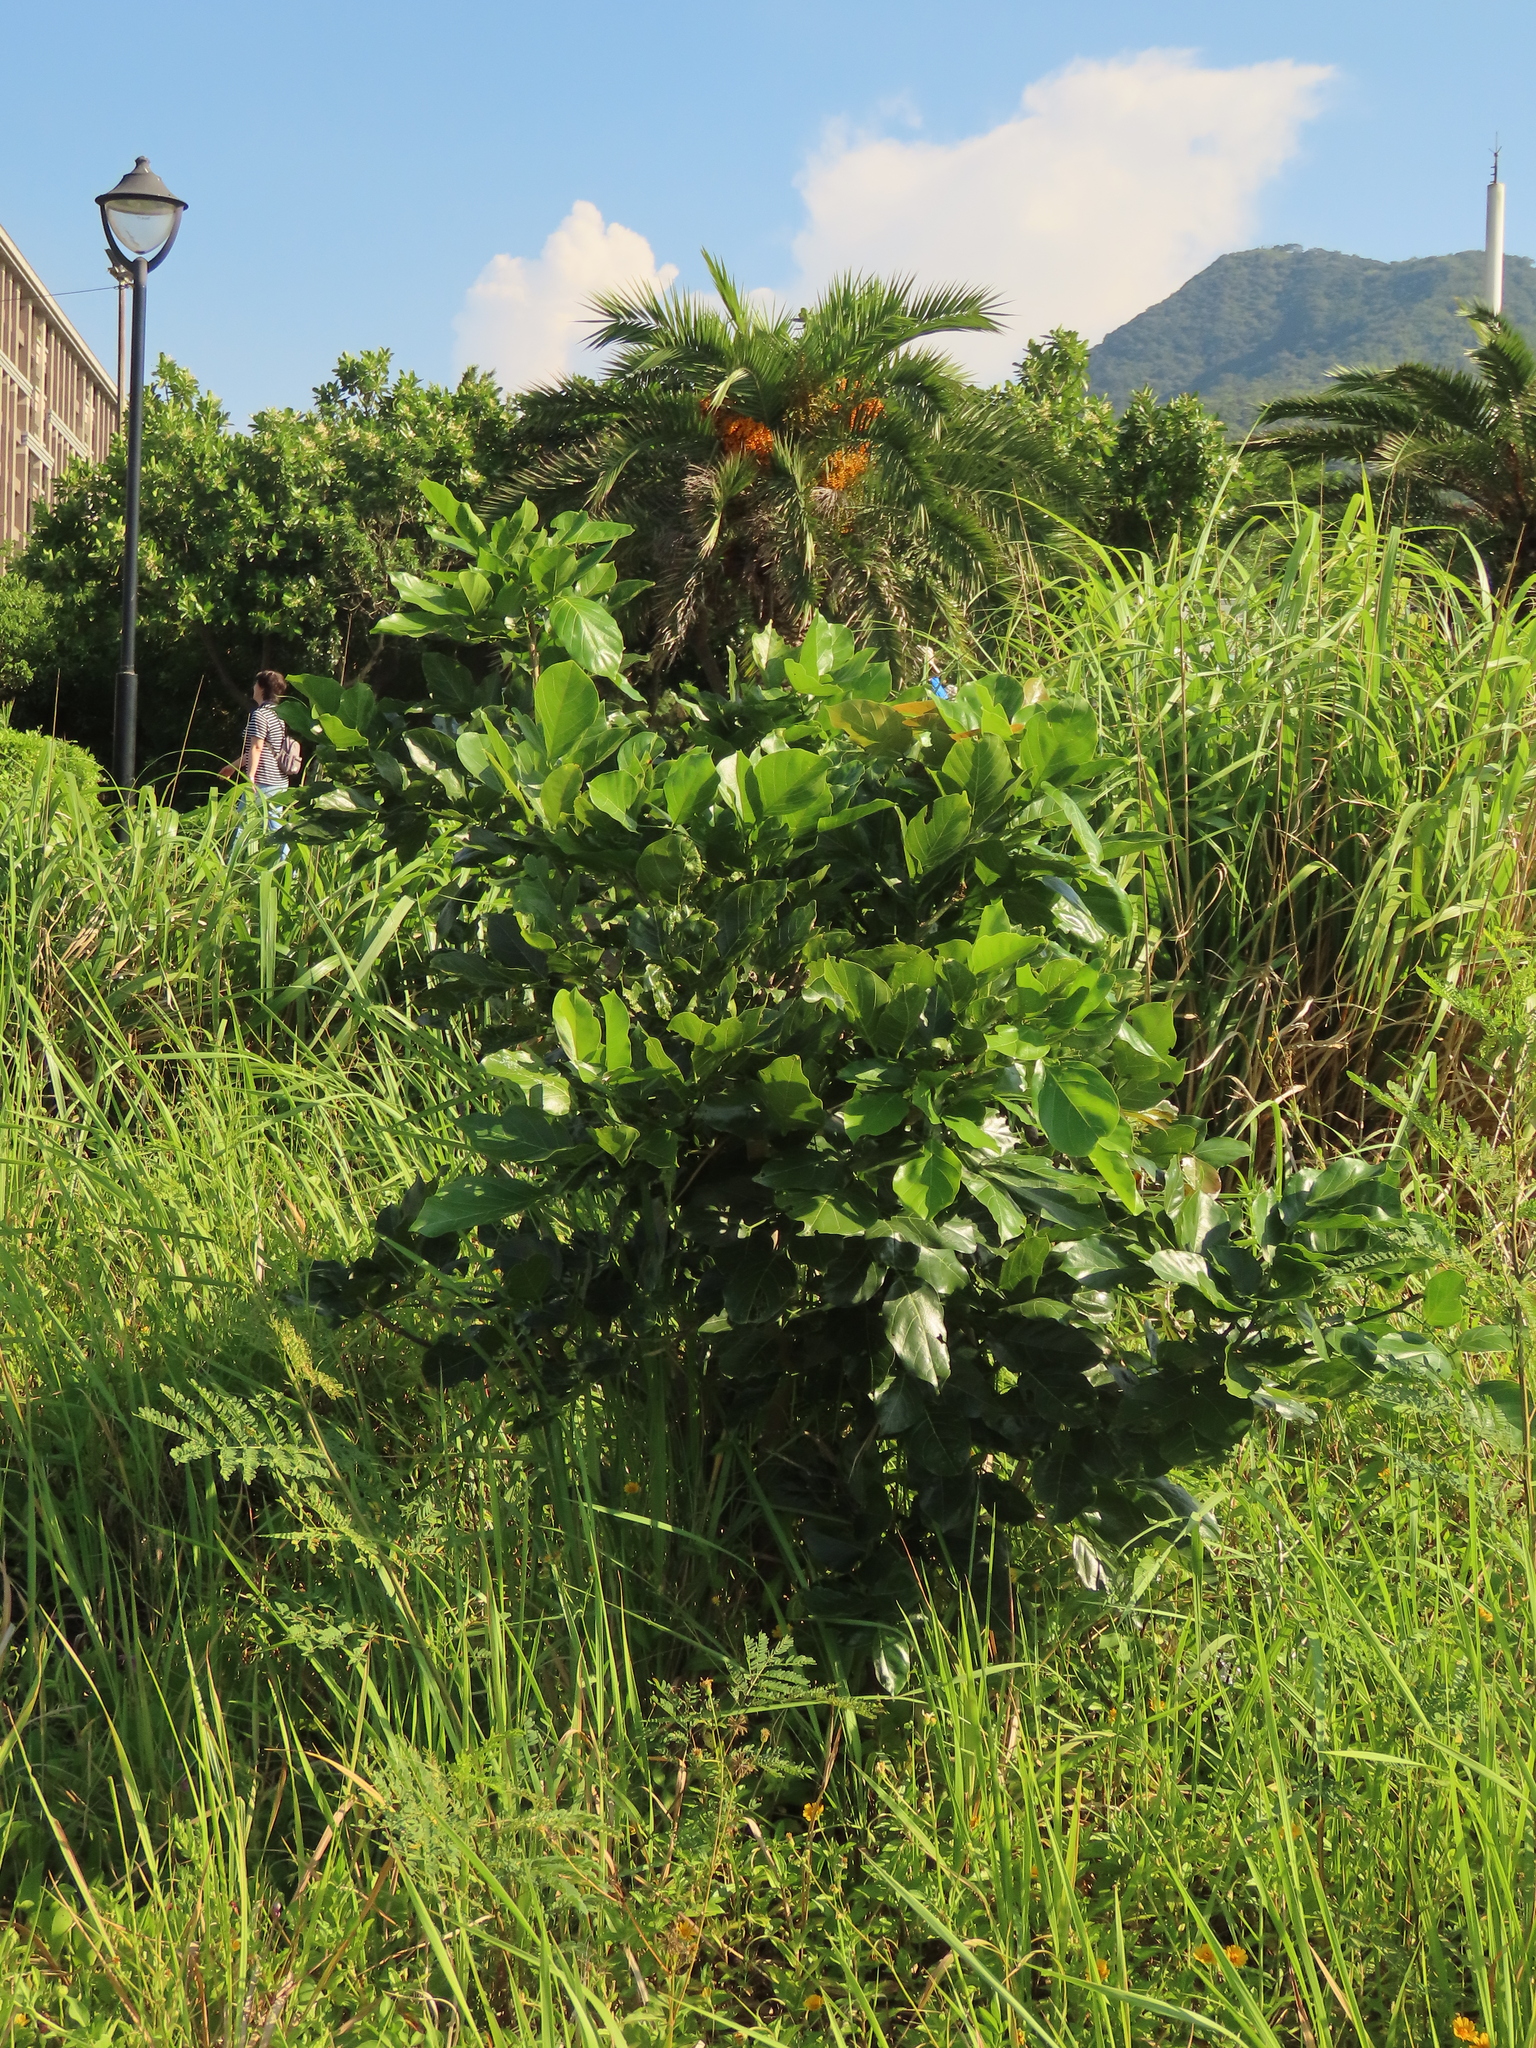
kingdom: Plantae
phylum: Tracheophyta
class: Magnoliopsida
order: Fabales
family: Fabaceae
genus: Pongamia
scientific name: Pongamia pinnata
